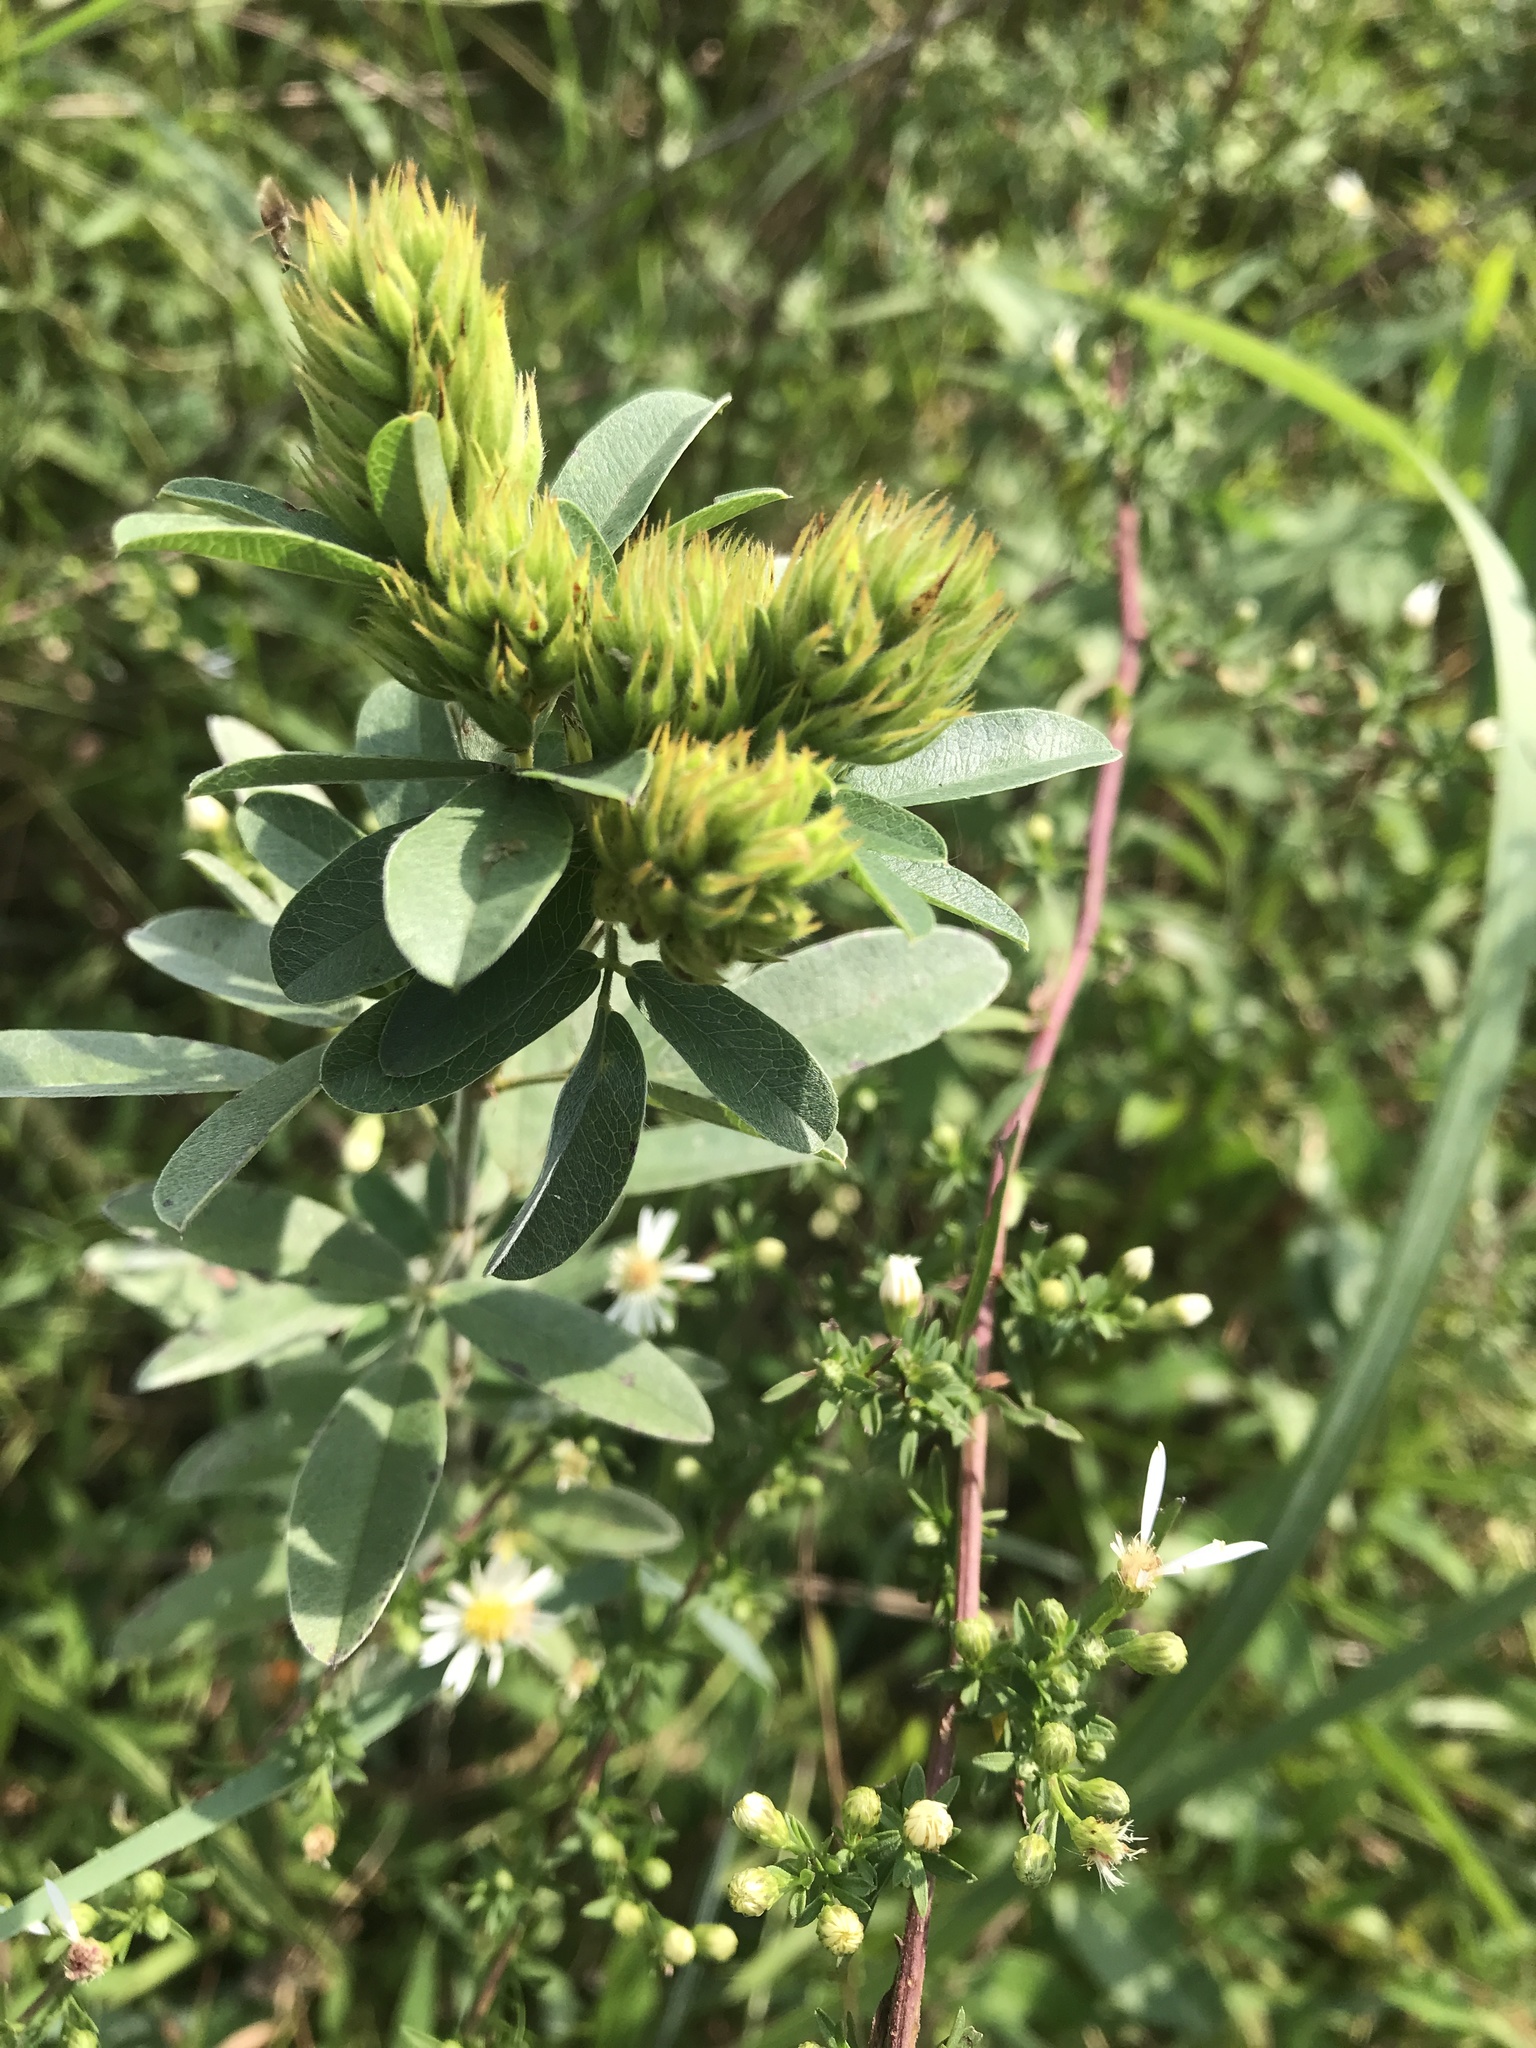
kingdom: Plantae
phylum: Tracheophyta
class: Magnoliopsida
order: Fabales
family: Fabaceae
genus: Lespedeza
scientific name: Lespedeza capitata
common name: Dusty clover
